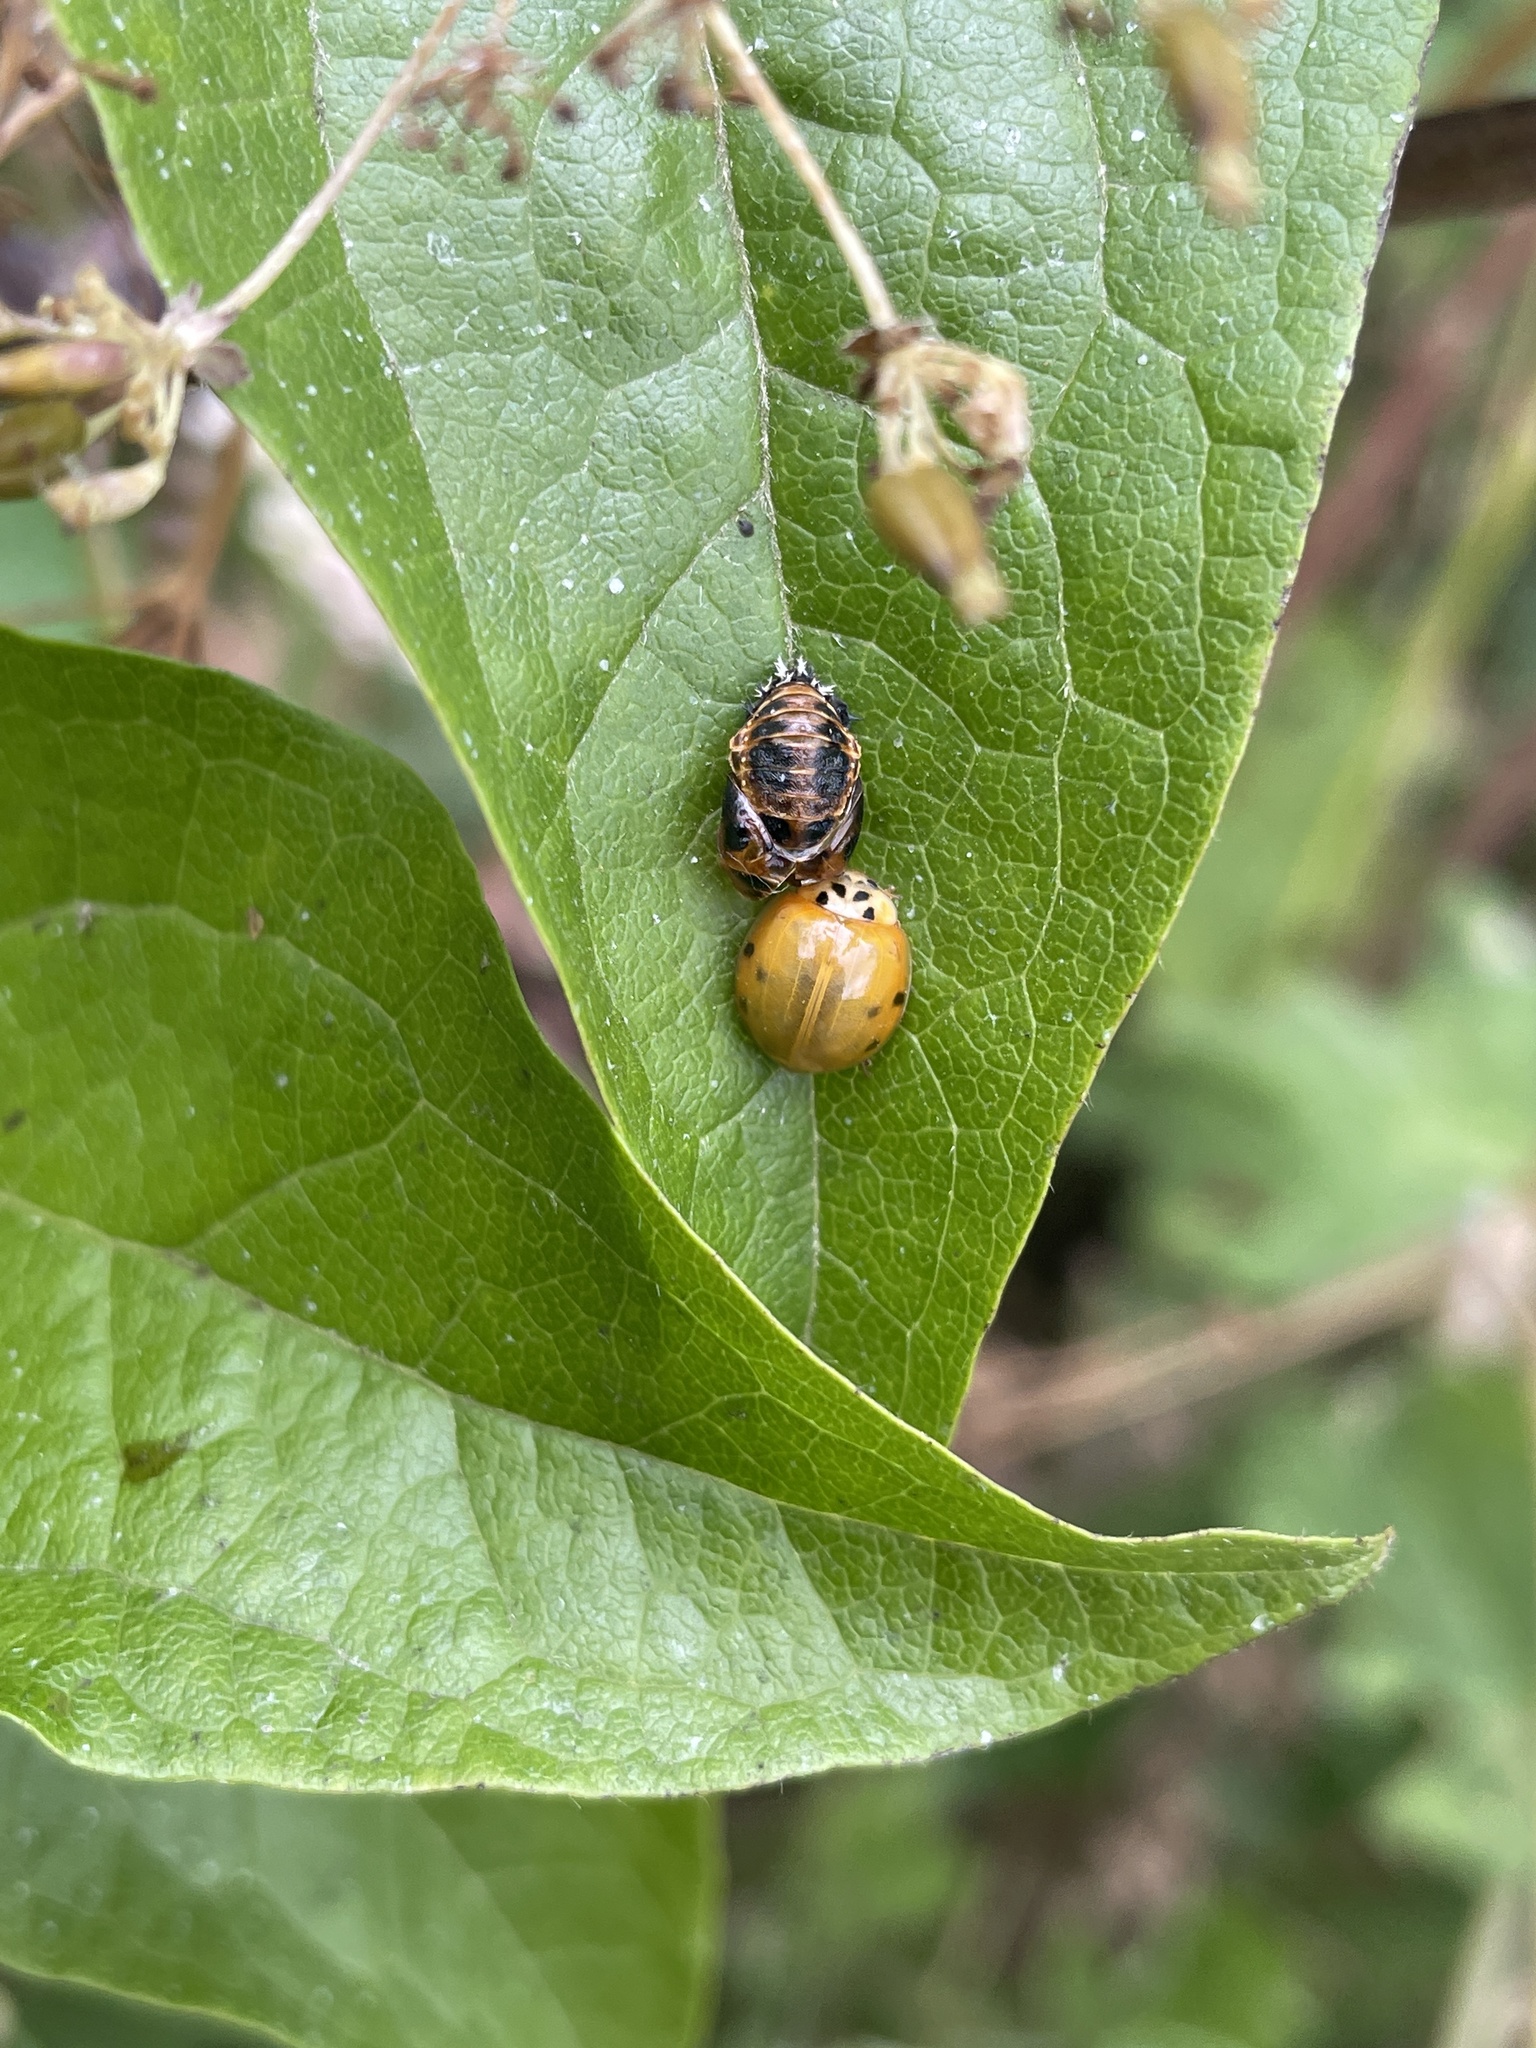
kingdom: Animalia
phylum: Arthropoda
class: Insecta
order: Coleoptera
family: Coccinellidae
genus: Harmonia
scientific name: Harmonia axyridis
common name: Harlequin ladybird
